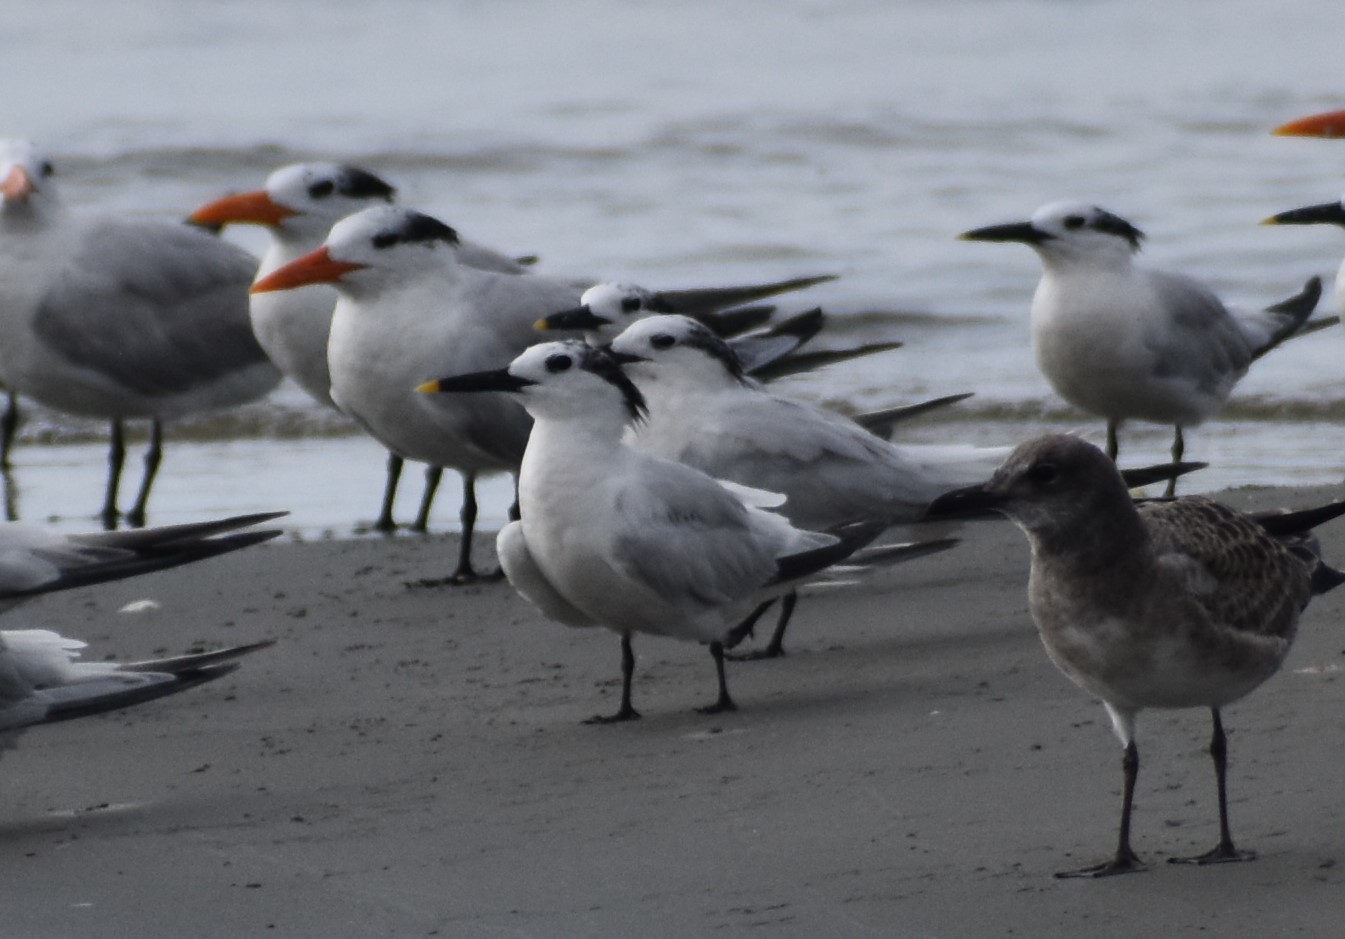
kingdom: Animalia
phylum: Chordata
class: Aves
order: Charadriiformes
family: Laridae
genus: Thalasseus
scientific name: Thalasseus sandvicensis
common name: Sandwich tern
